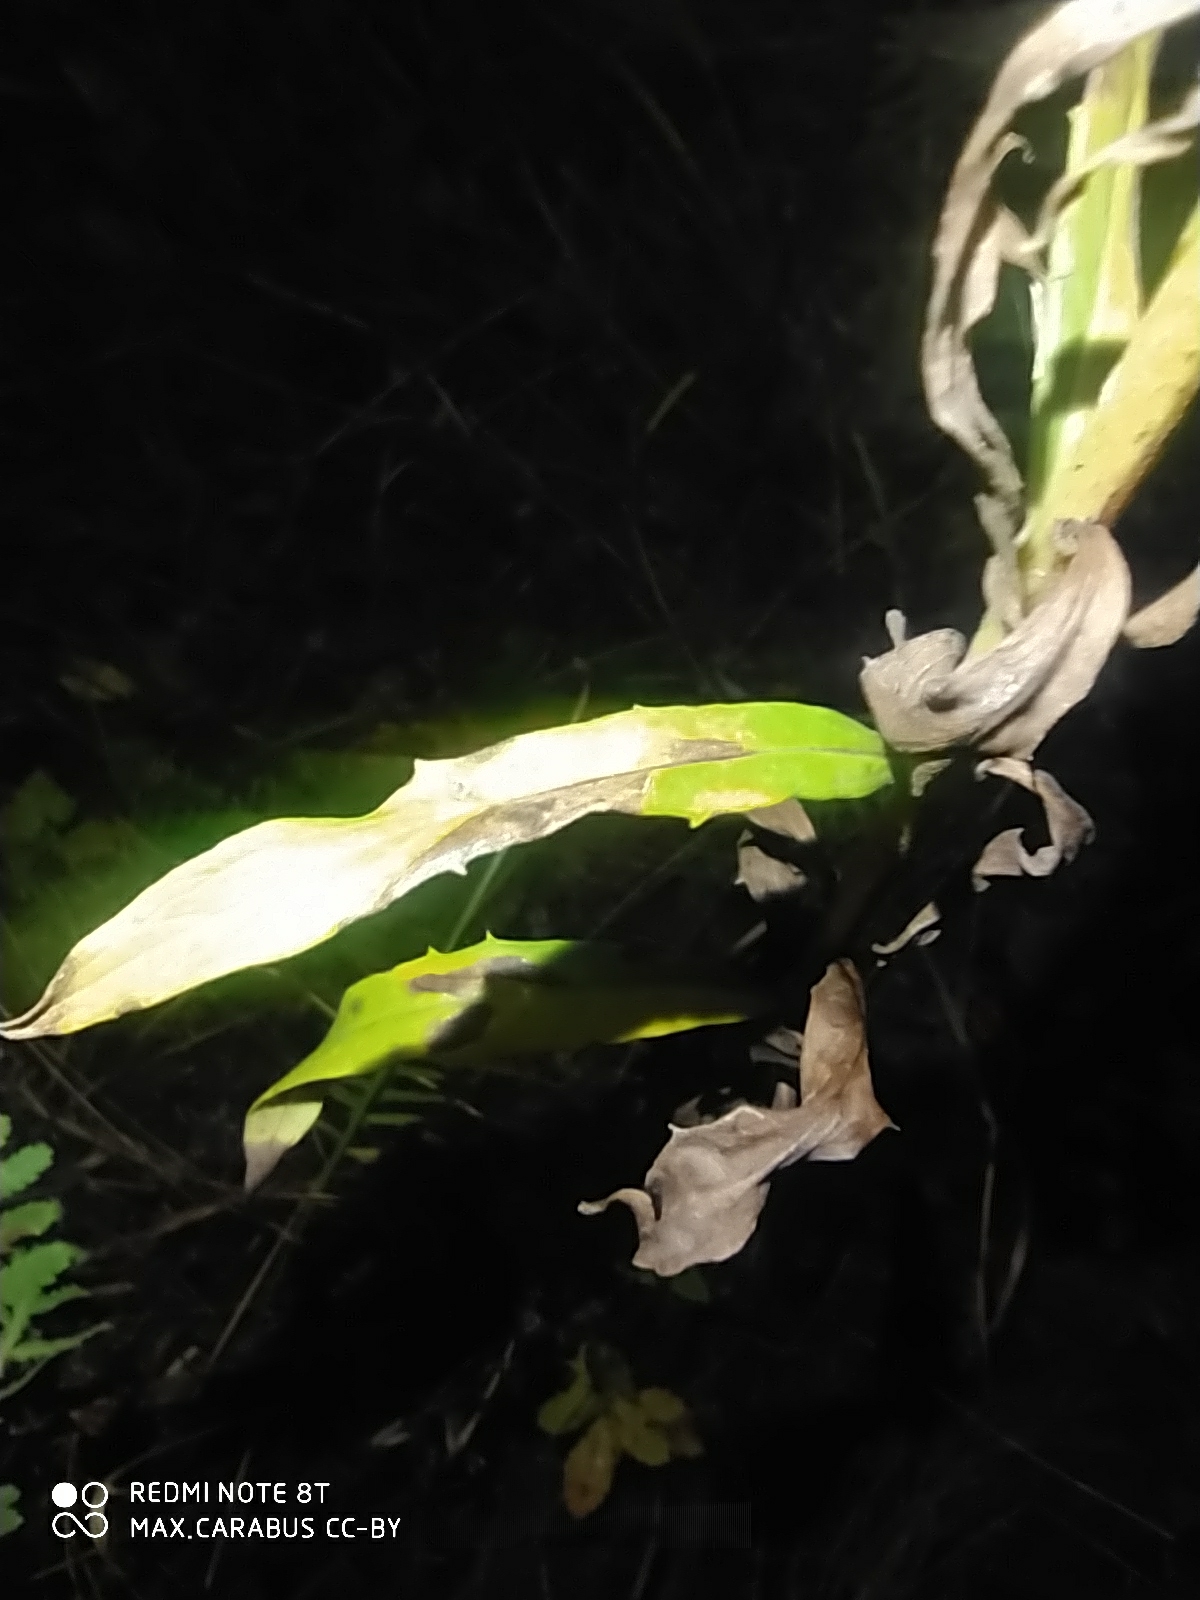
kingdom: Plantae
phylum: Tracheophyta
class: Magnoliopsida
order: Asterales
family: Asteraceae
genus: Hieracium
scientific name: Hieracium umbellatum
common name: Northern hawkweed
